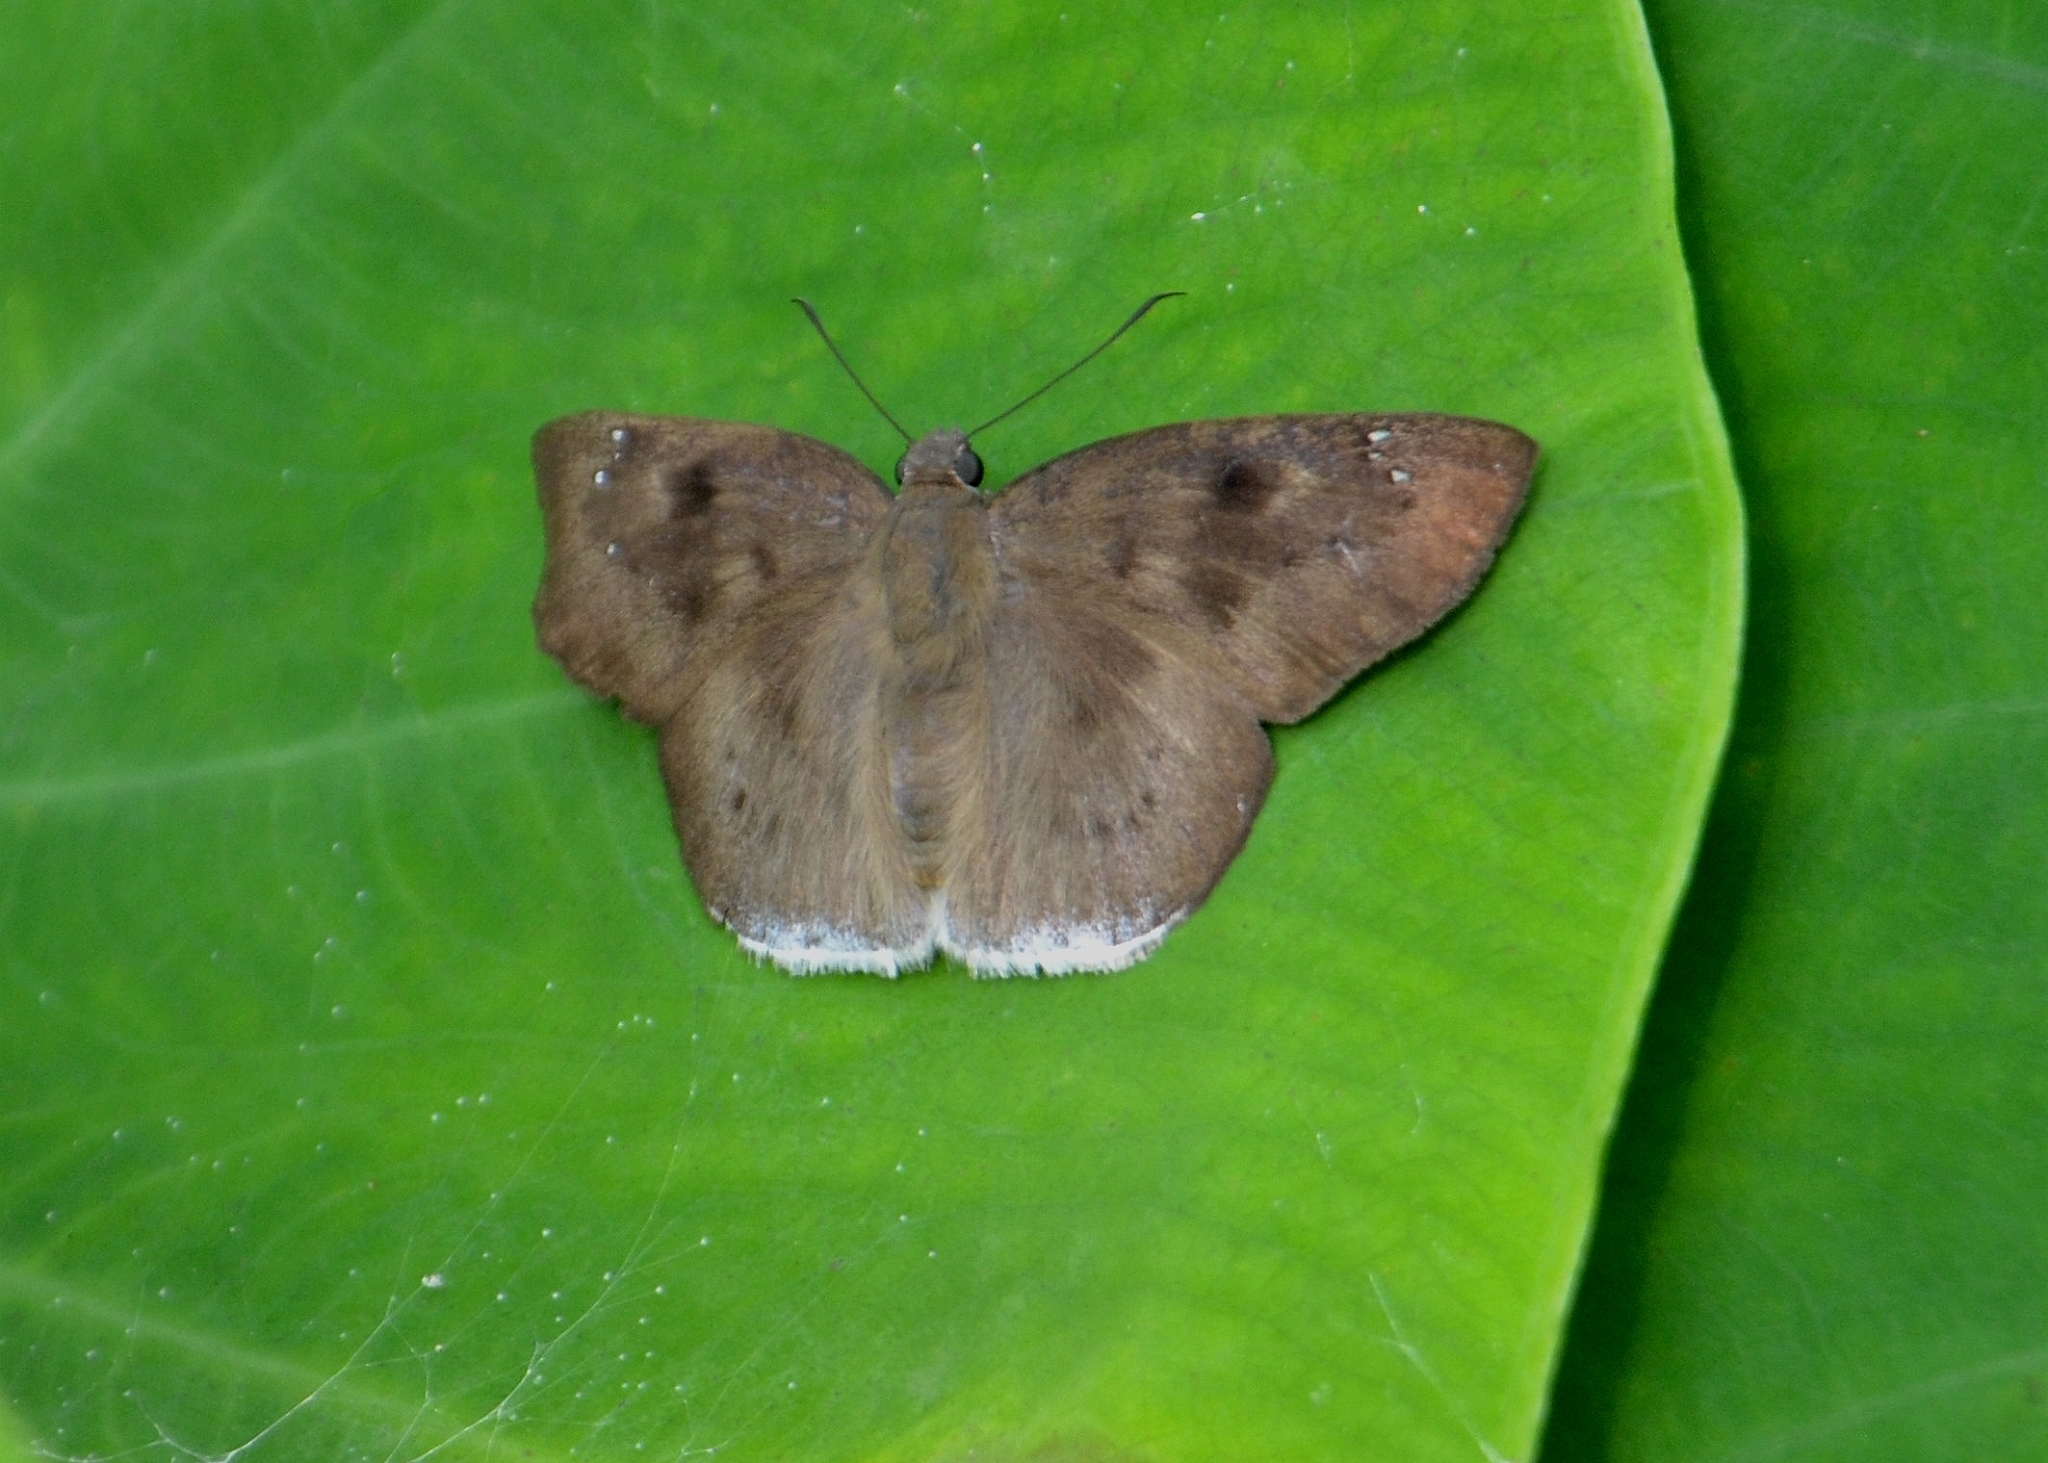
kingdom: Animalia
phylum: Arthropoda
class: Insecta
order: Lepidoptera
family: Hesperiidae
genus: Tagiades
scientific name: Tagiades gana
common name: Suffused snow flat
